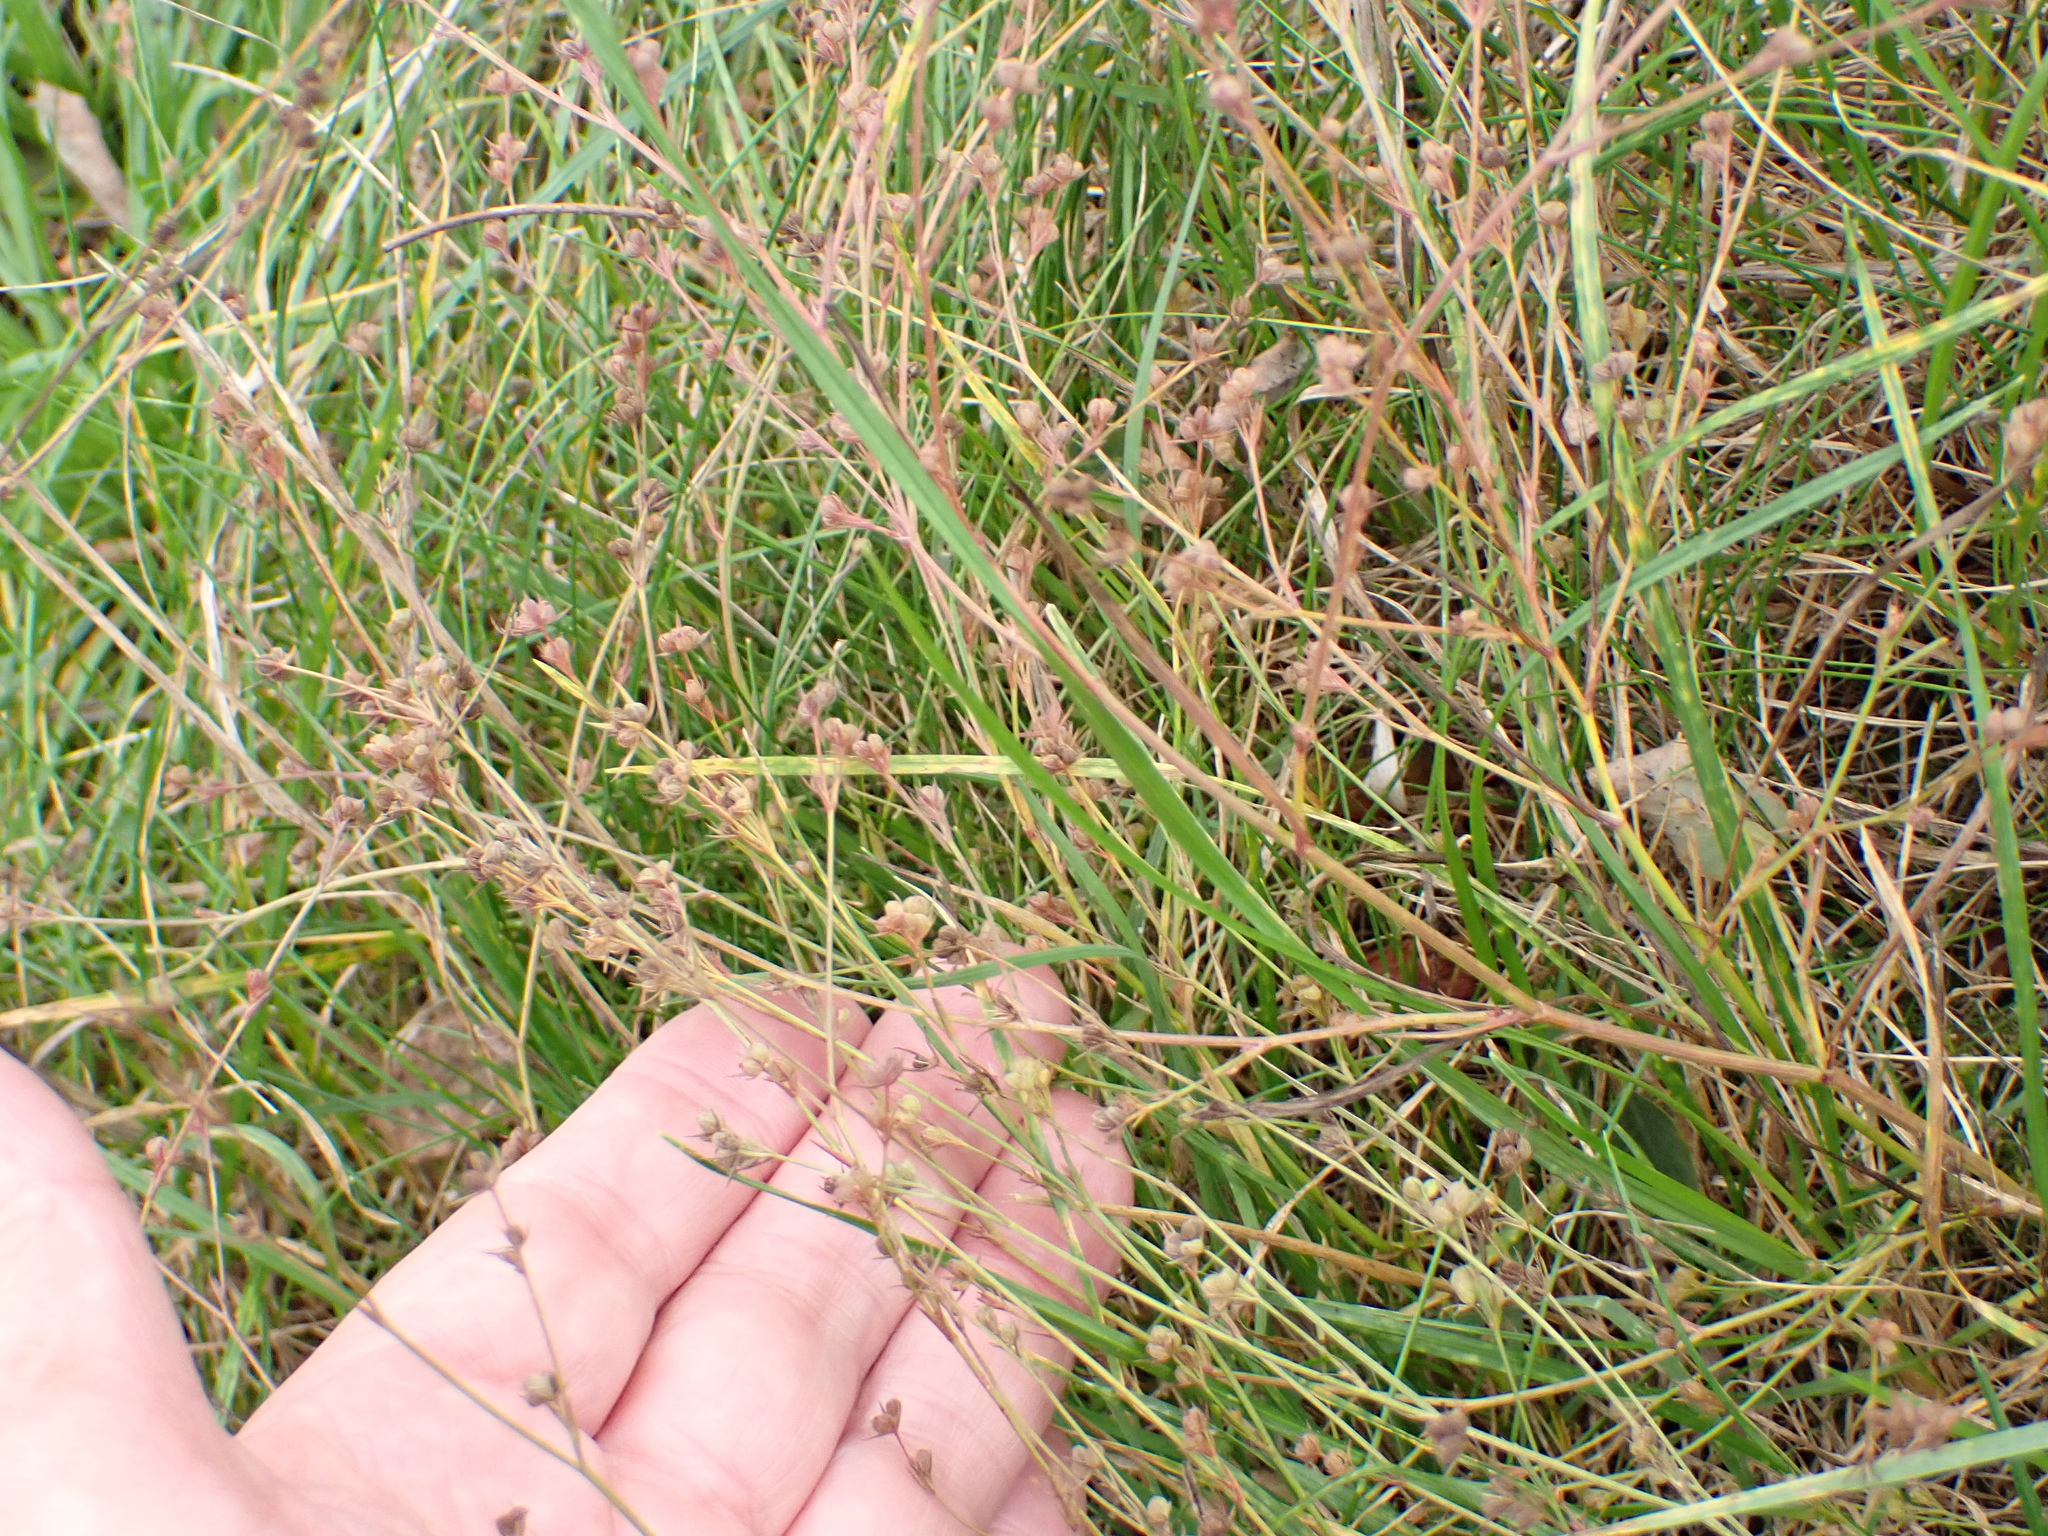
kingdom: Plantae
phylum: Tracheophyta
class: Magnoliopsida
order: Apiales
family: Apiaceae
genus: Bupleurum
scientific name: Bupleurum tenuissimum
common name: Slender hare's-ear
